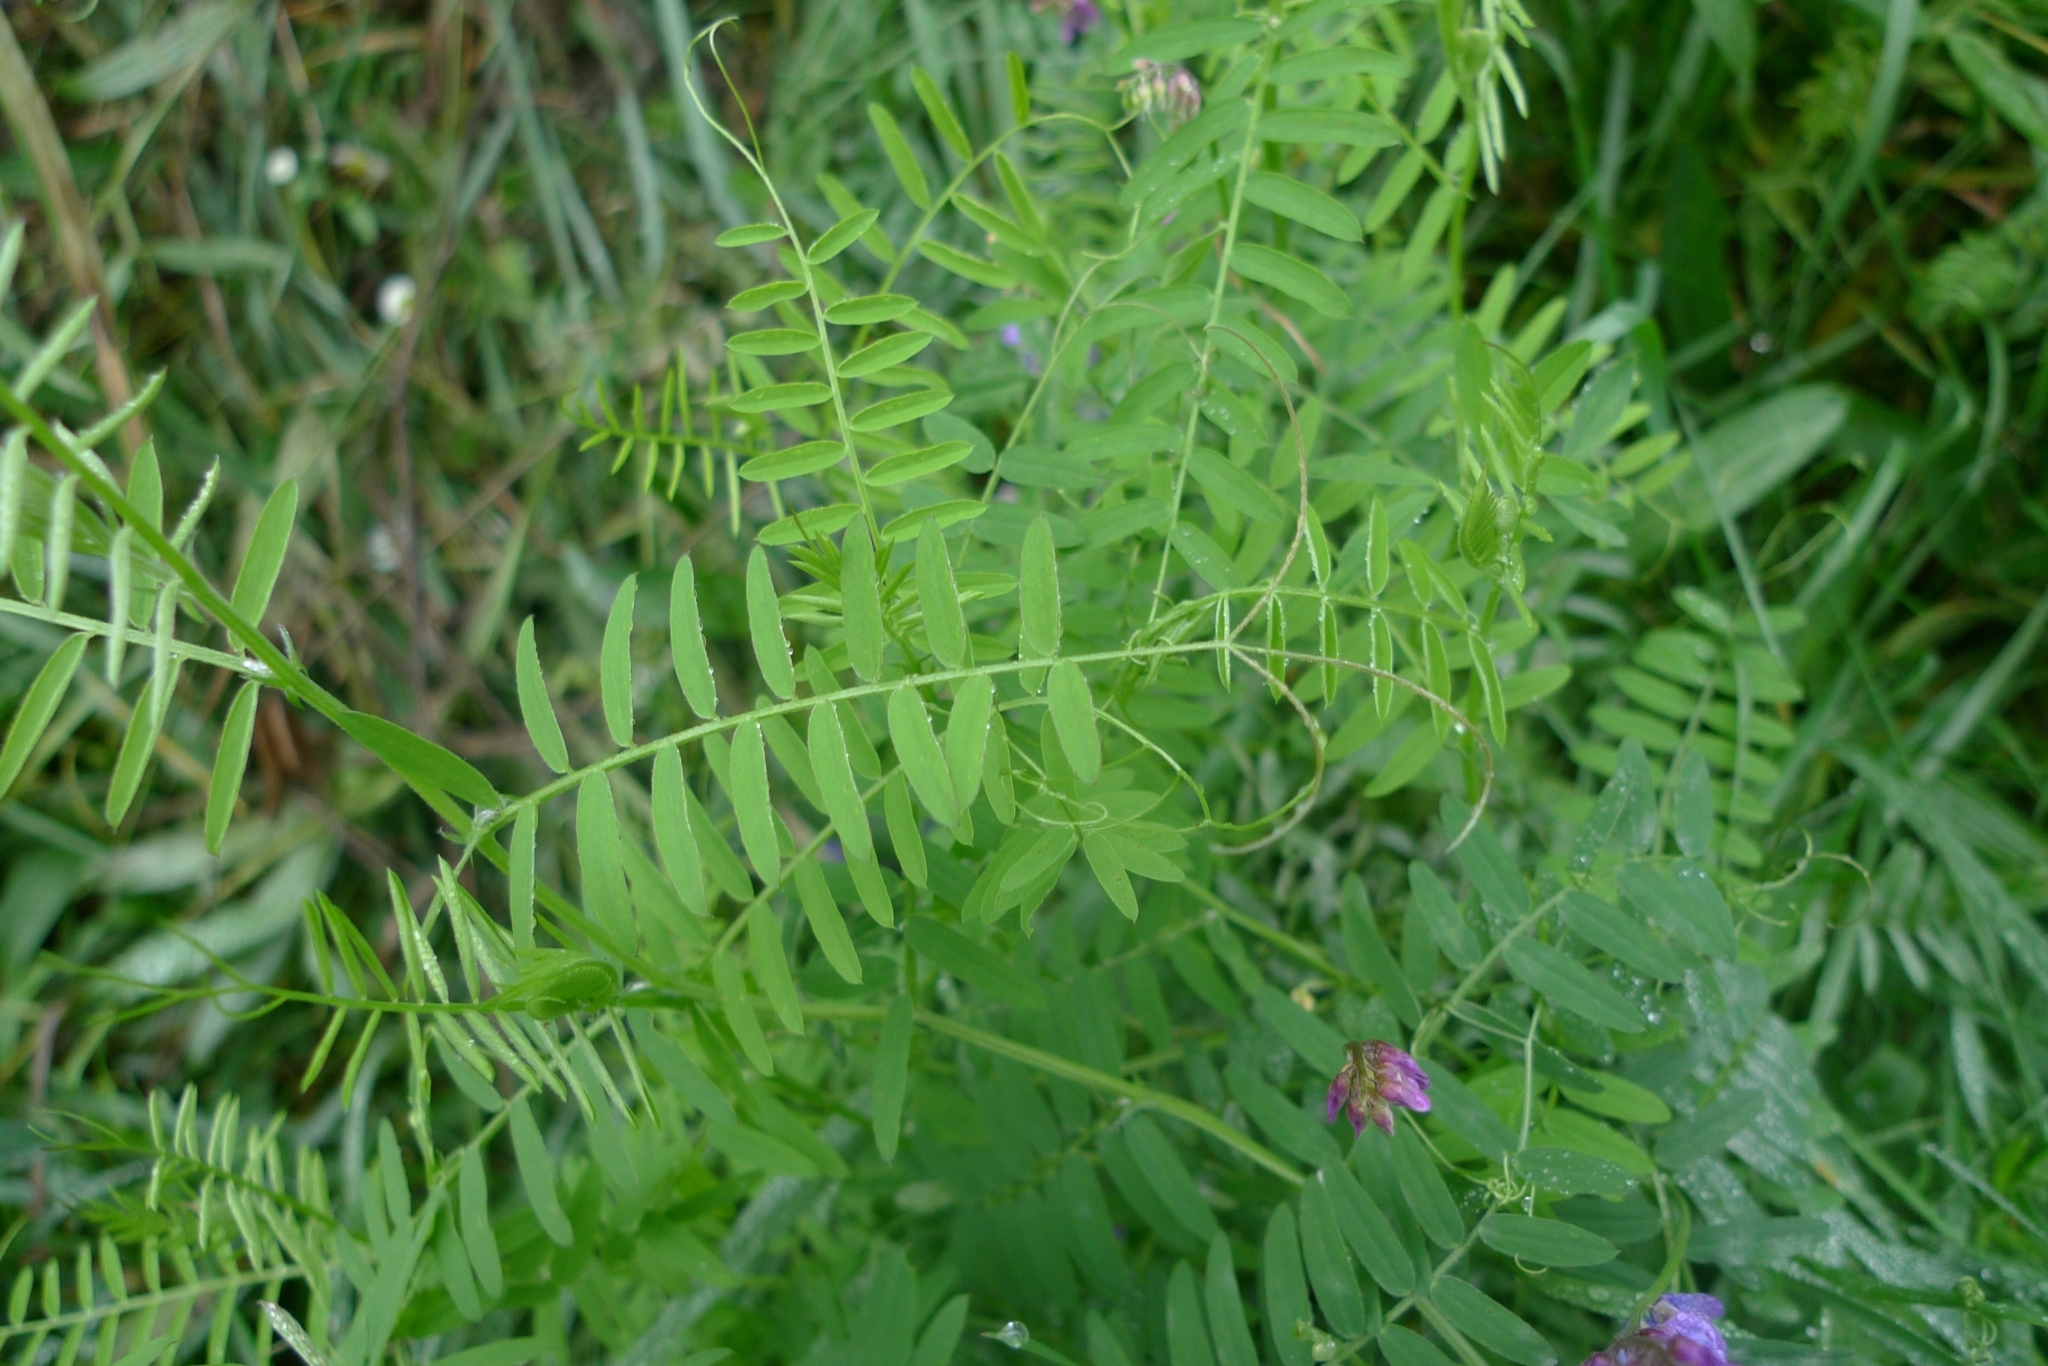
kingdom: Plantae
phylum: Tracheophyta
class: Magnoliopsida
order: Fabales
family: Fabaceae
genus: Vicia
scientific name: Vicia cracca
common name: Bird vetch
